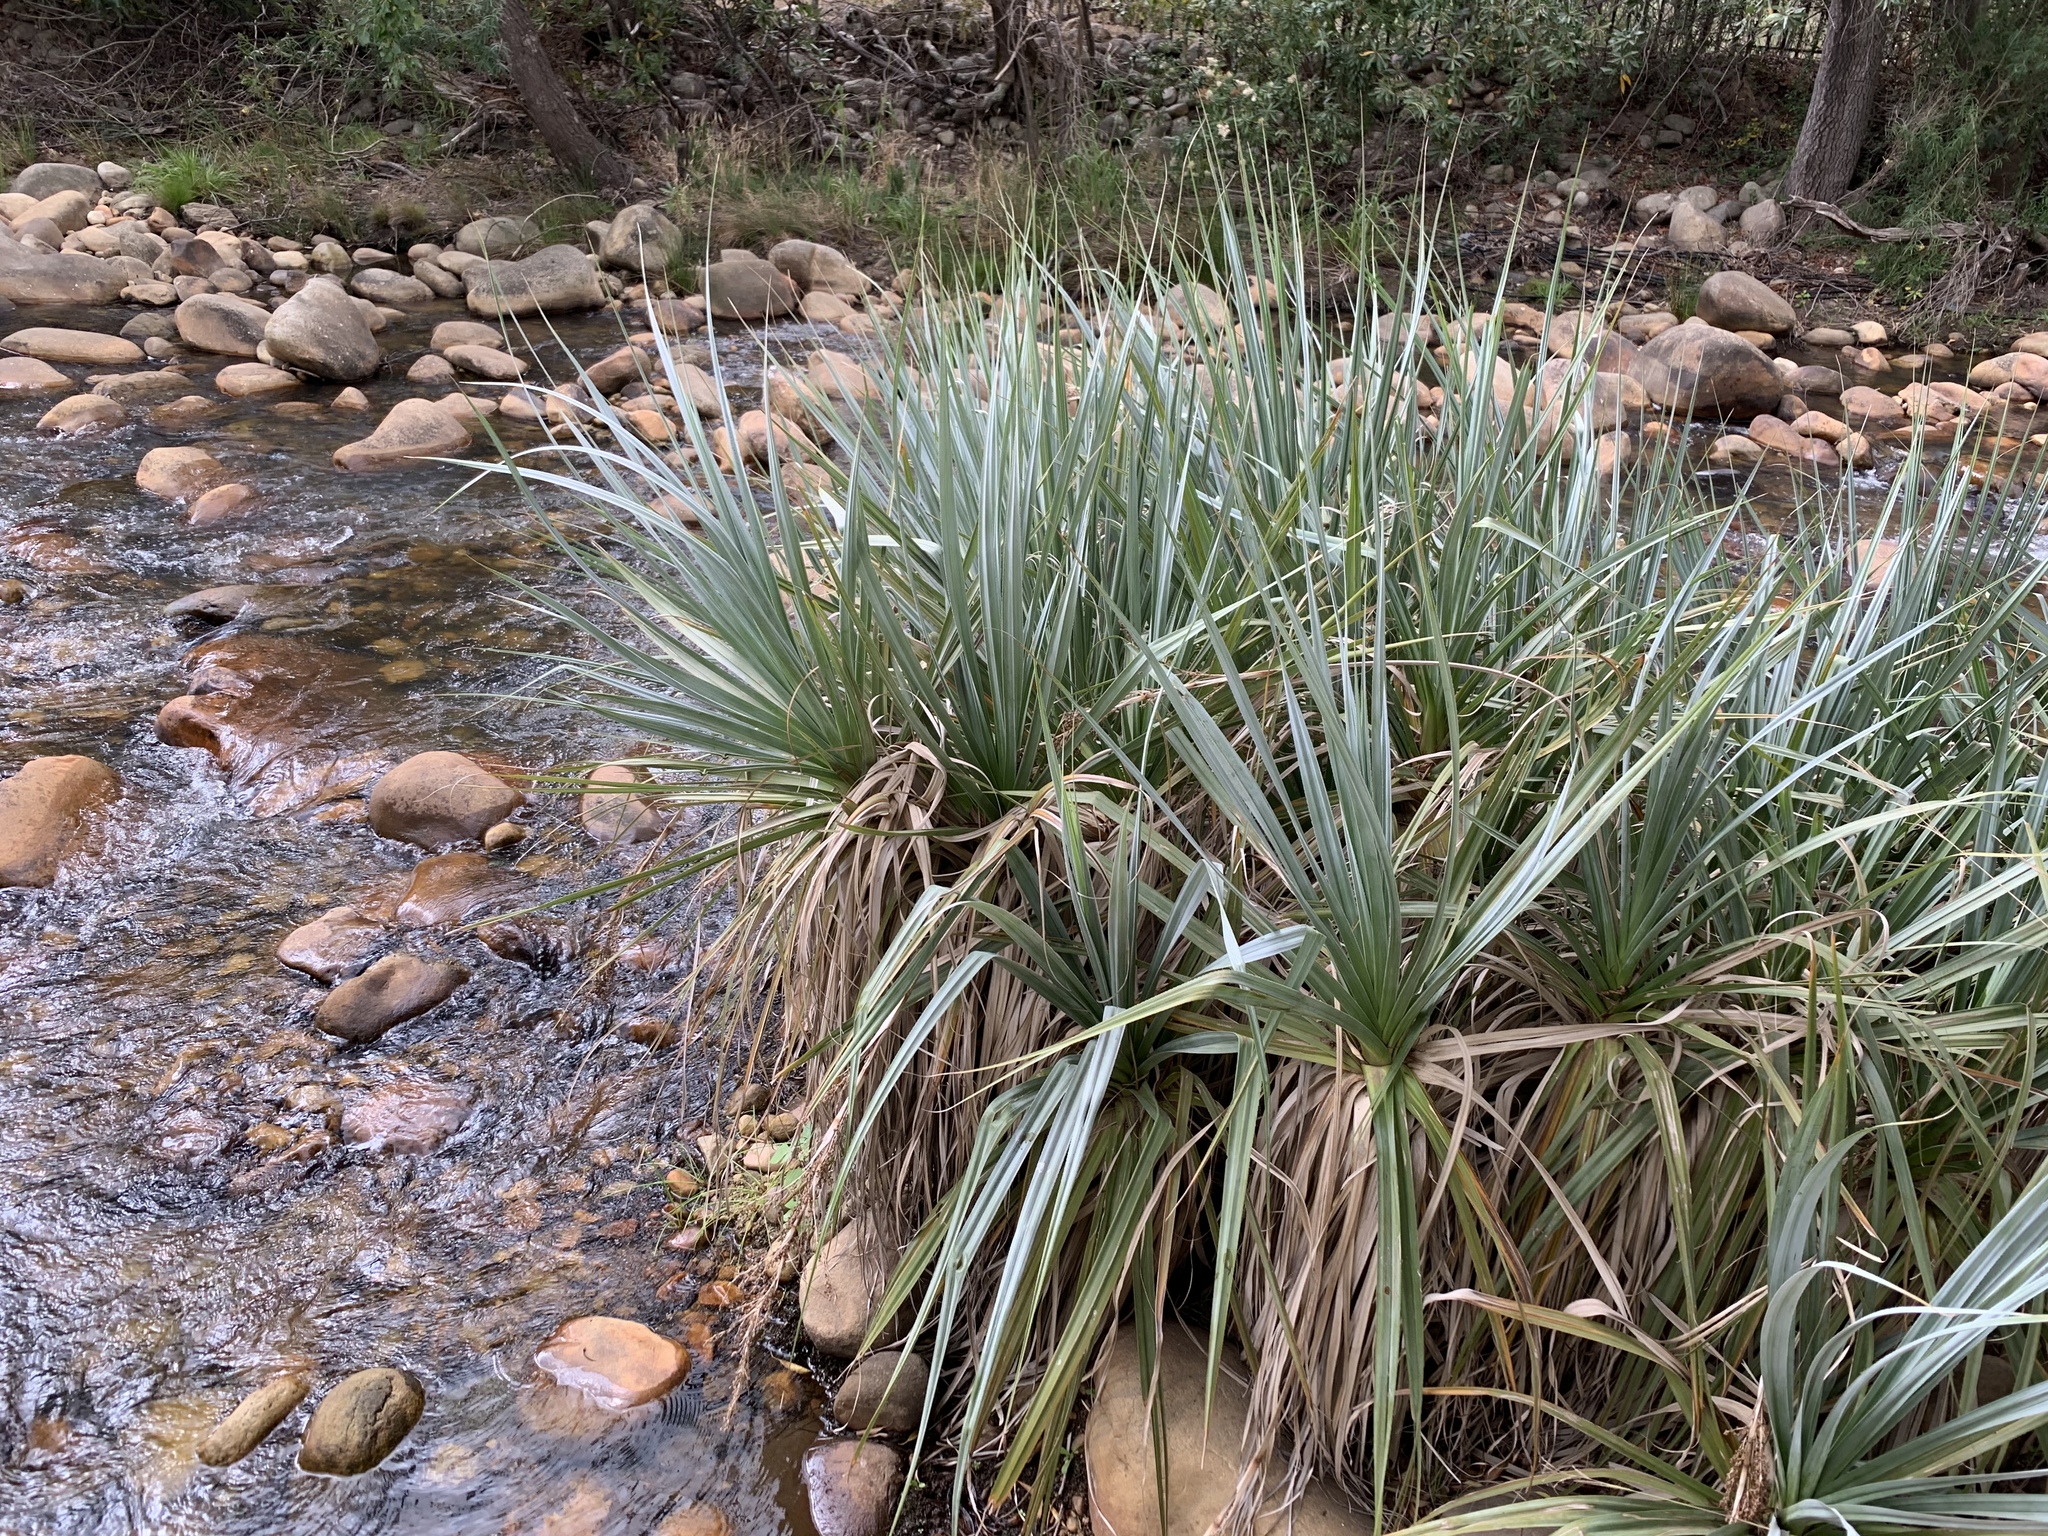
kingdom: Plantae
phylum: Tracheophyta
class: Liliopsida
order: Poales
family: Thurniaceae
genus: Prionium
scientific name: Prionium serratum
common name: Palmiet
